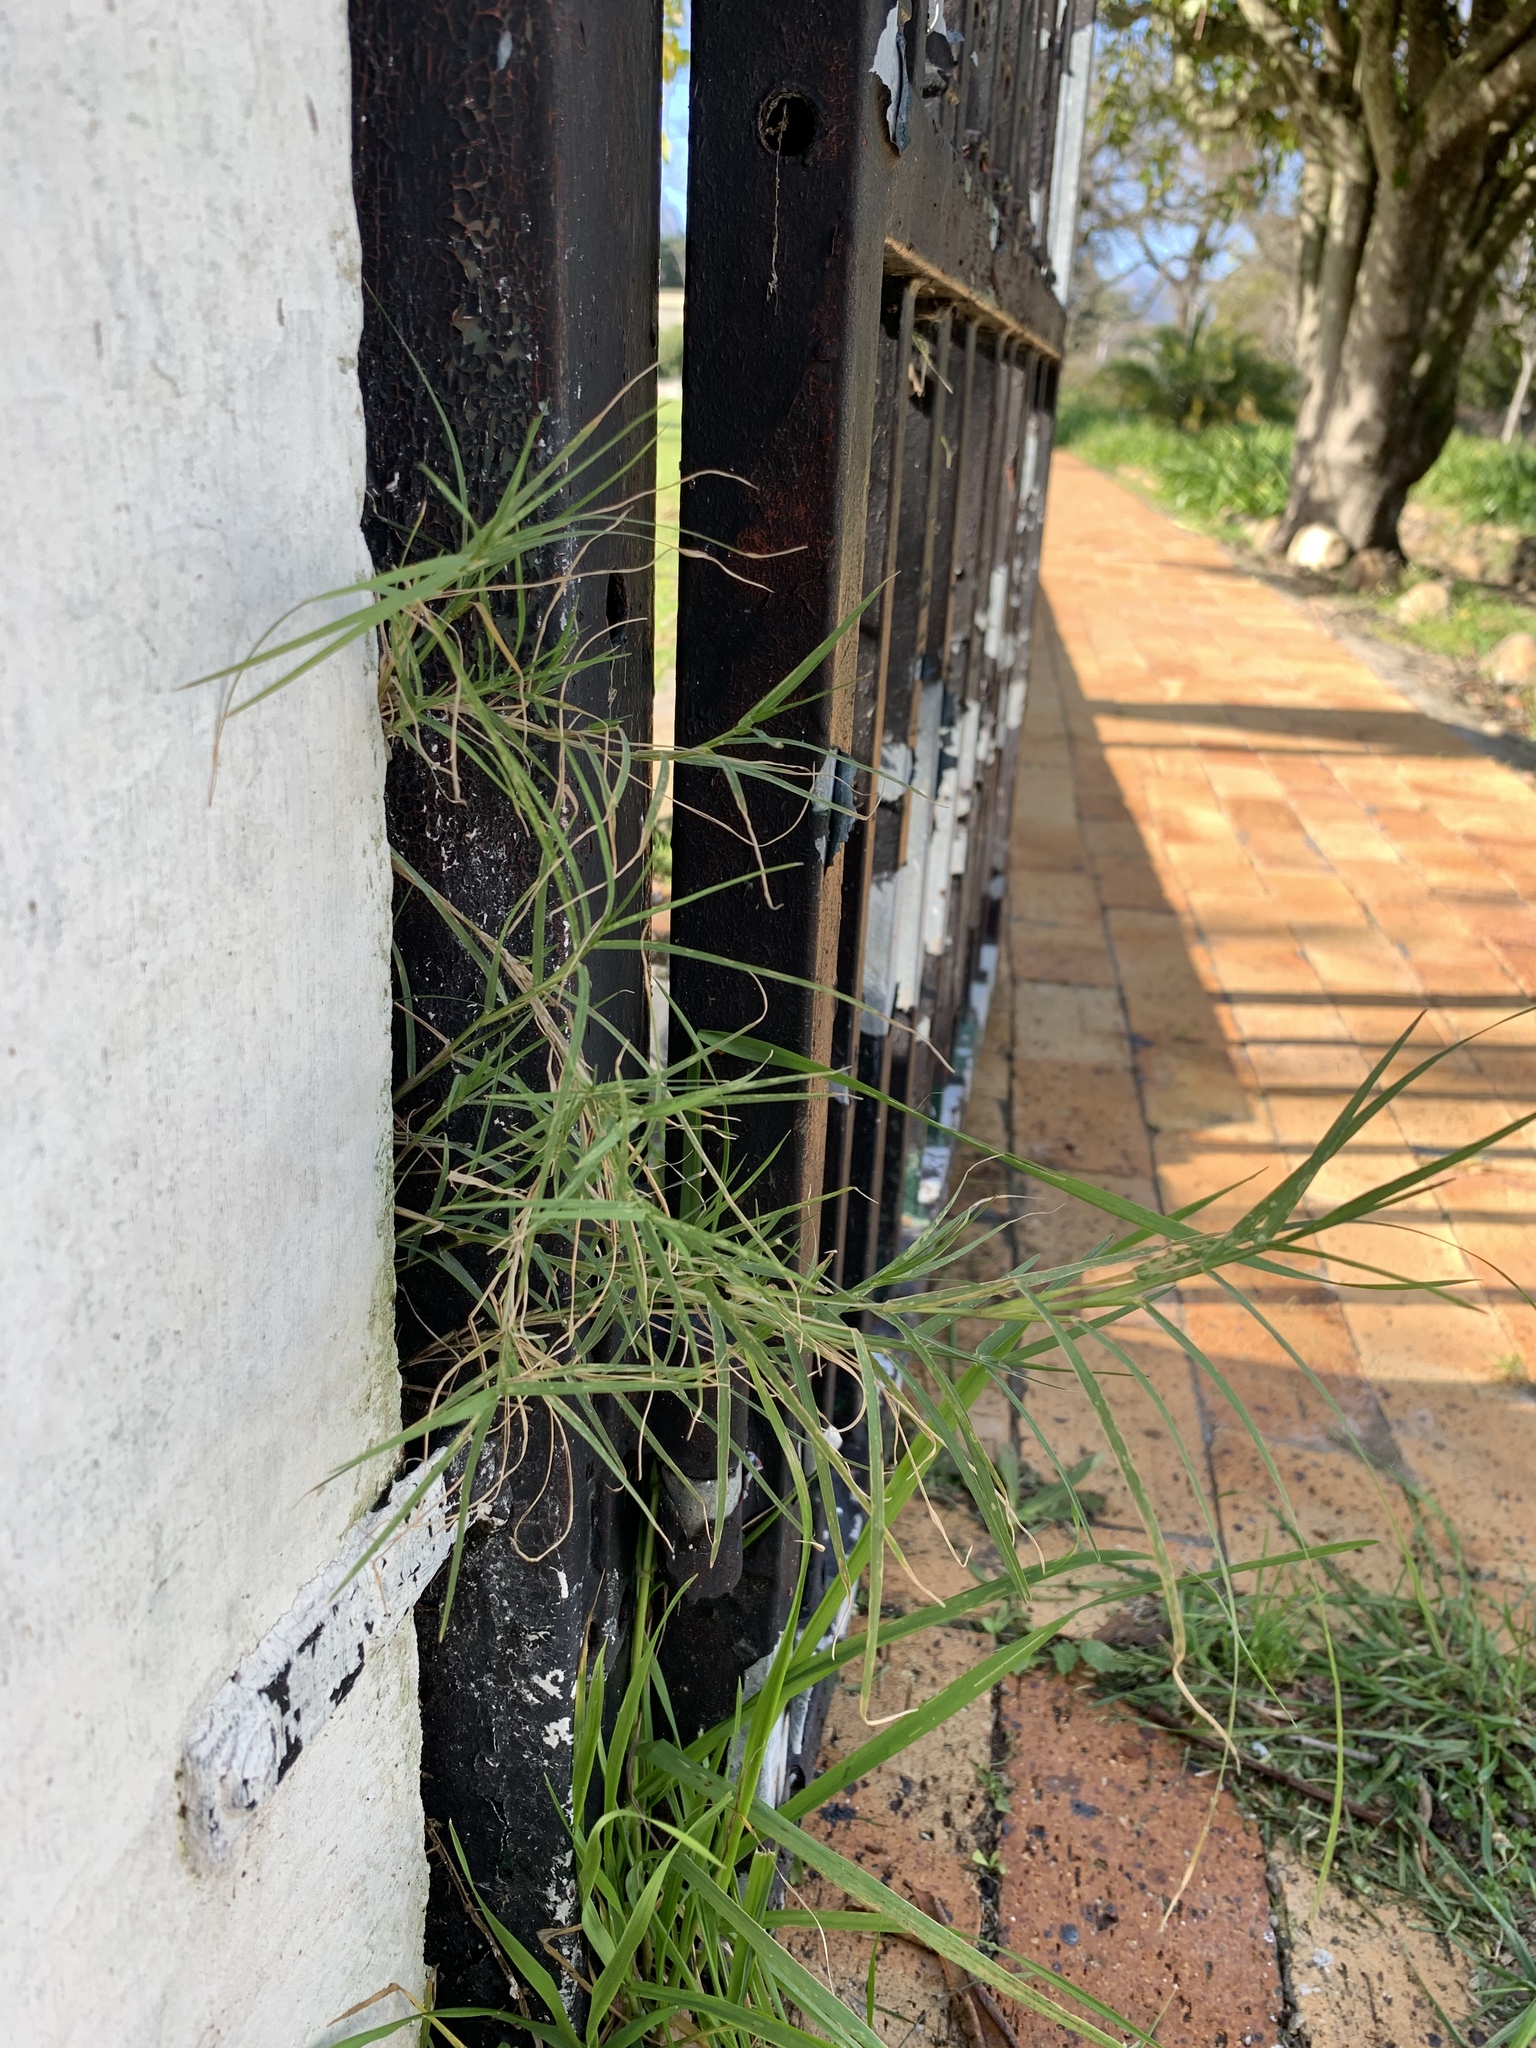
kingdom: Plantae
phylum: Tracheophyta
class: Liliopsida
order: Poales
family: Poaceae
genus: Cynodon
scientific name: Cynodon dactylon
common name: Bermuda grass
